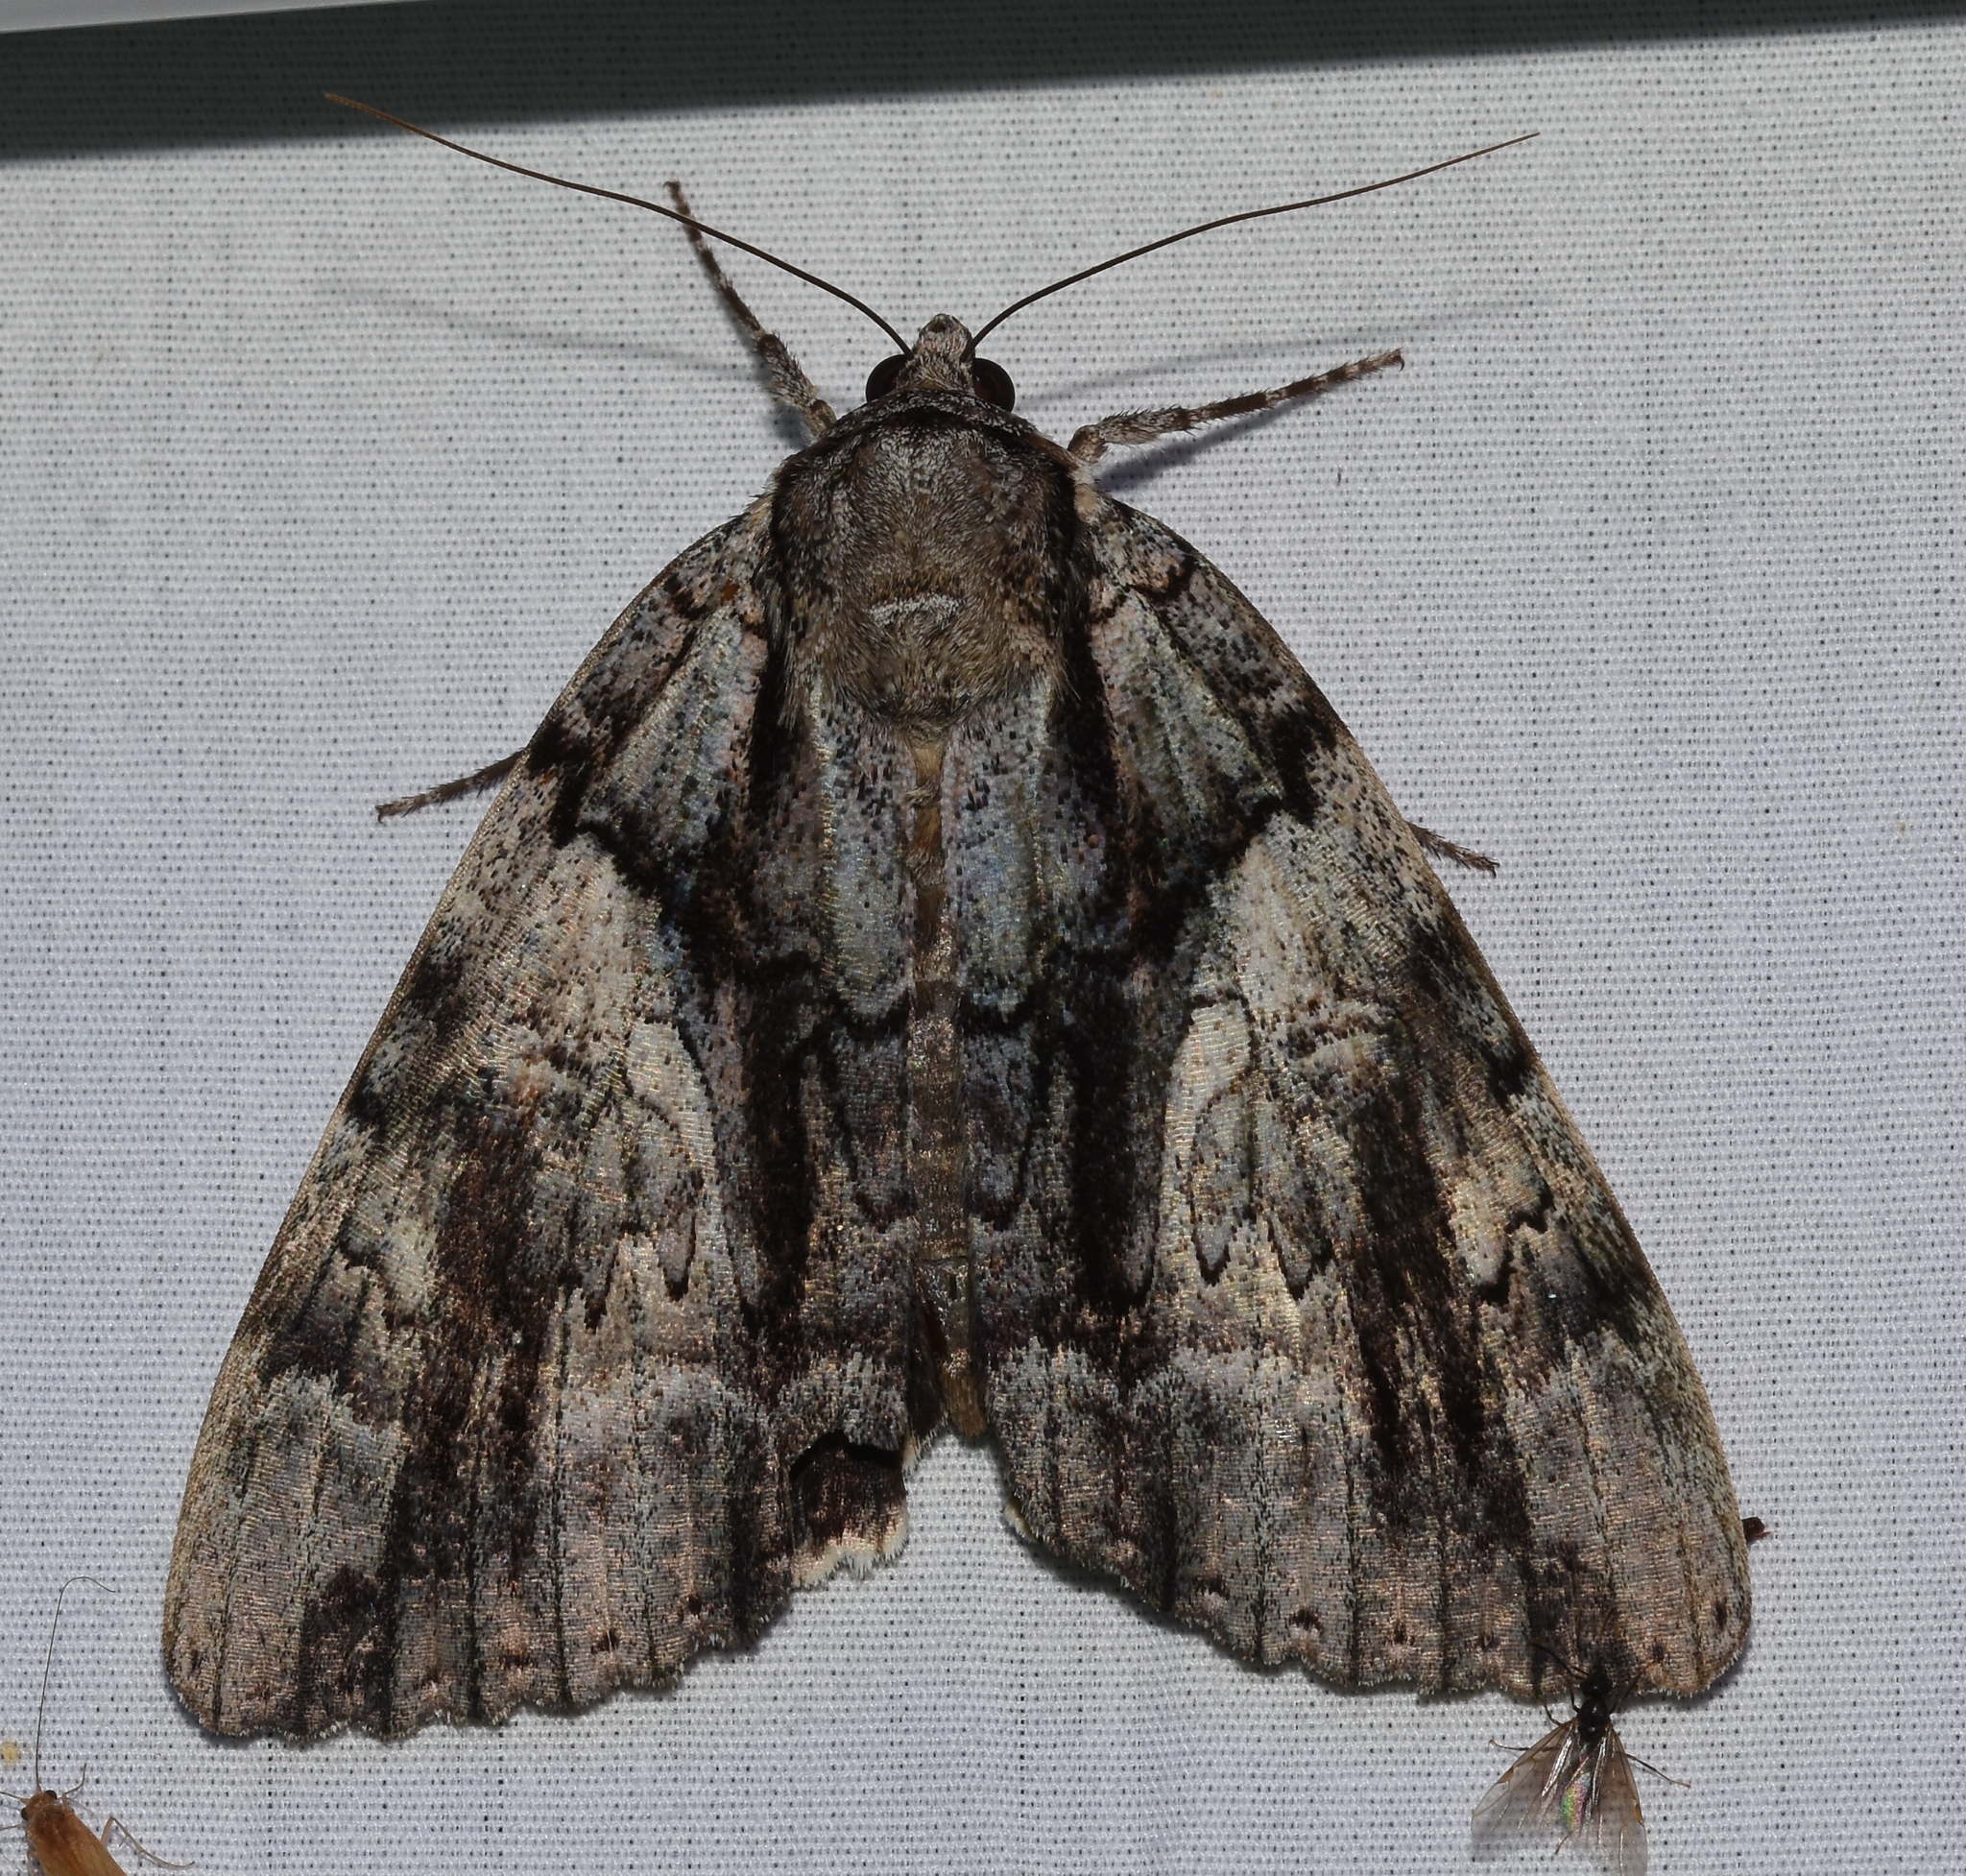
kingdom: Animalia
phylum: Arthropoda
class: Insecta
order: Lepidoptera
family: Erebidae
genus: Catocala
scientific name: Catocala vidua
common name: The widow
